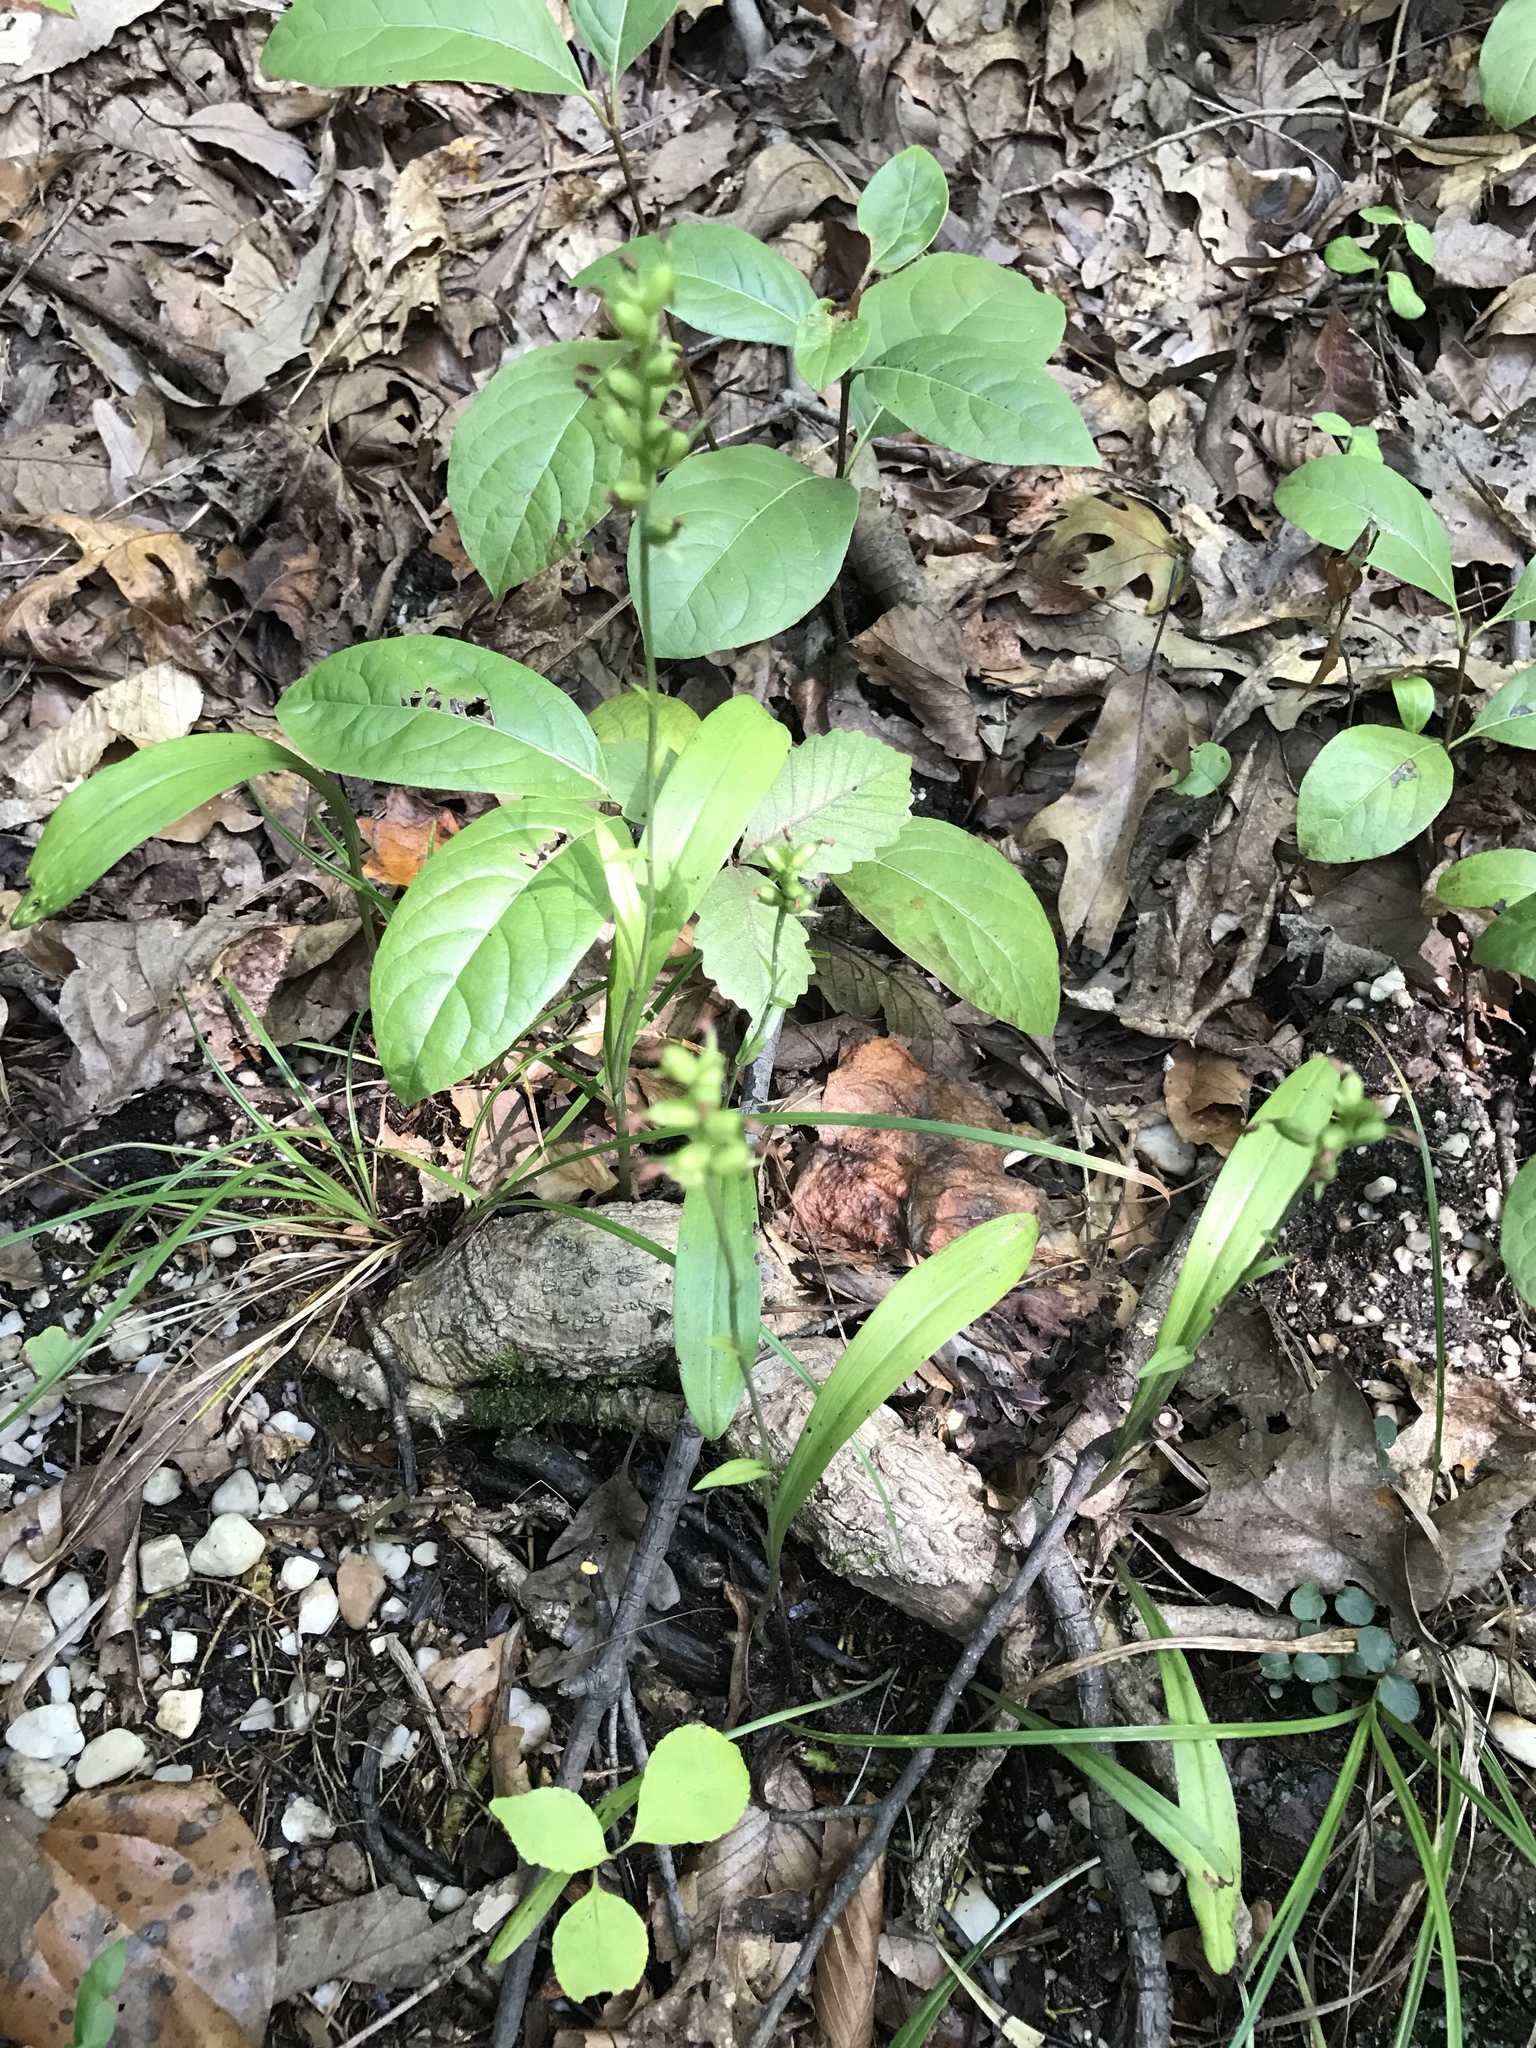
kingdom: Plantae
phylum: Tracheophyta
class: Liliopsida
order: Asparagales
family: Orchidaceae
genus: Platanthera
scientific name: Platanthera clavellata
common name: Club-spur orchid
